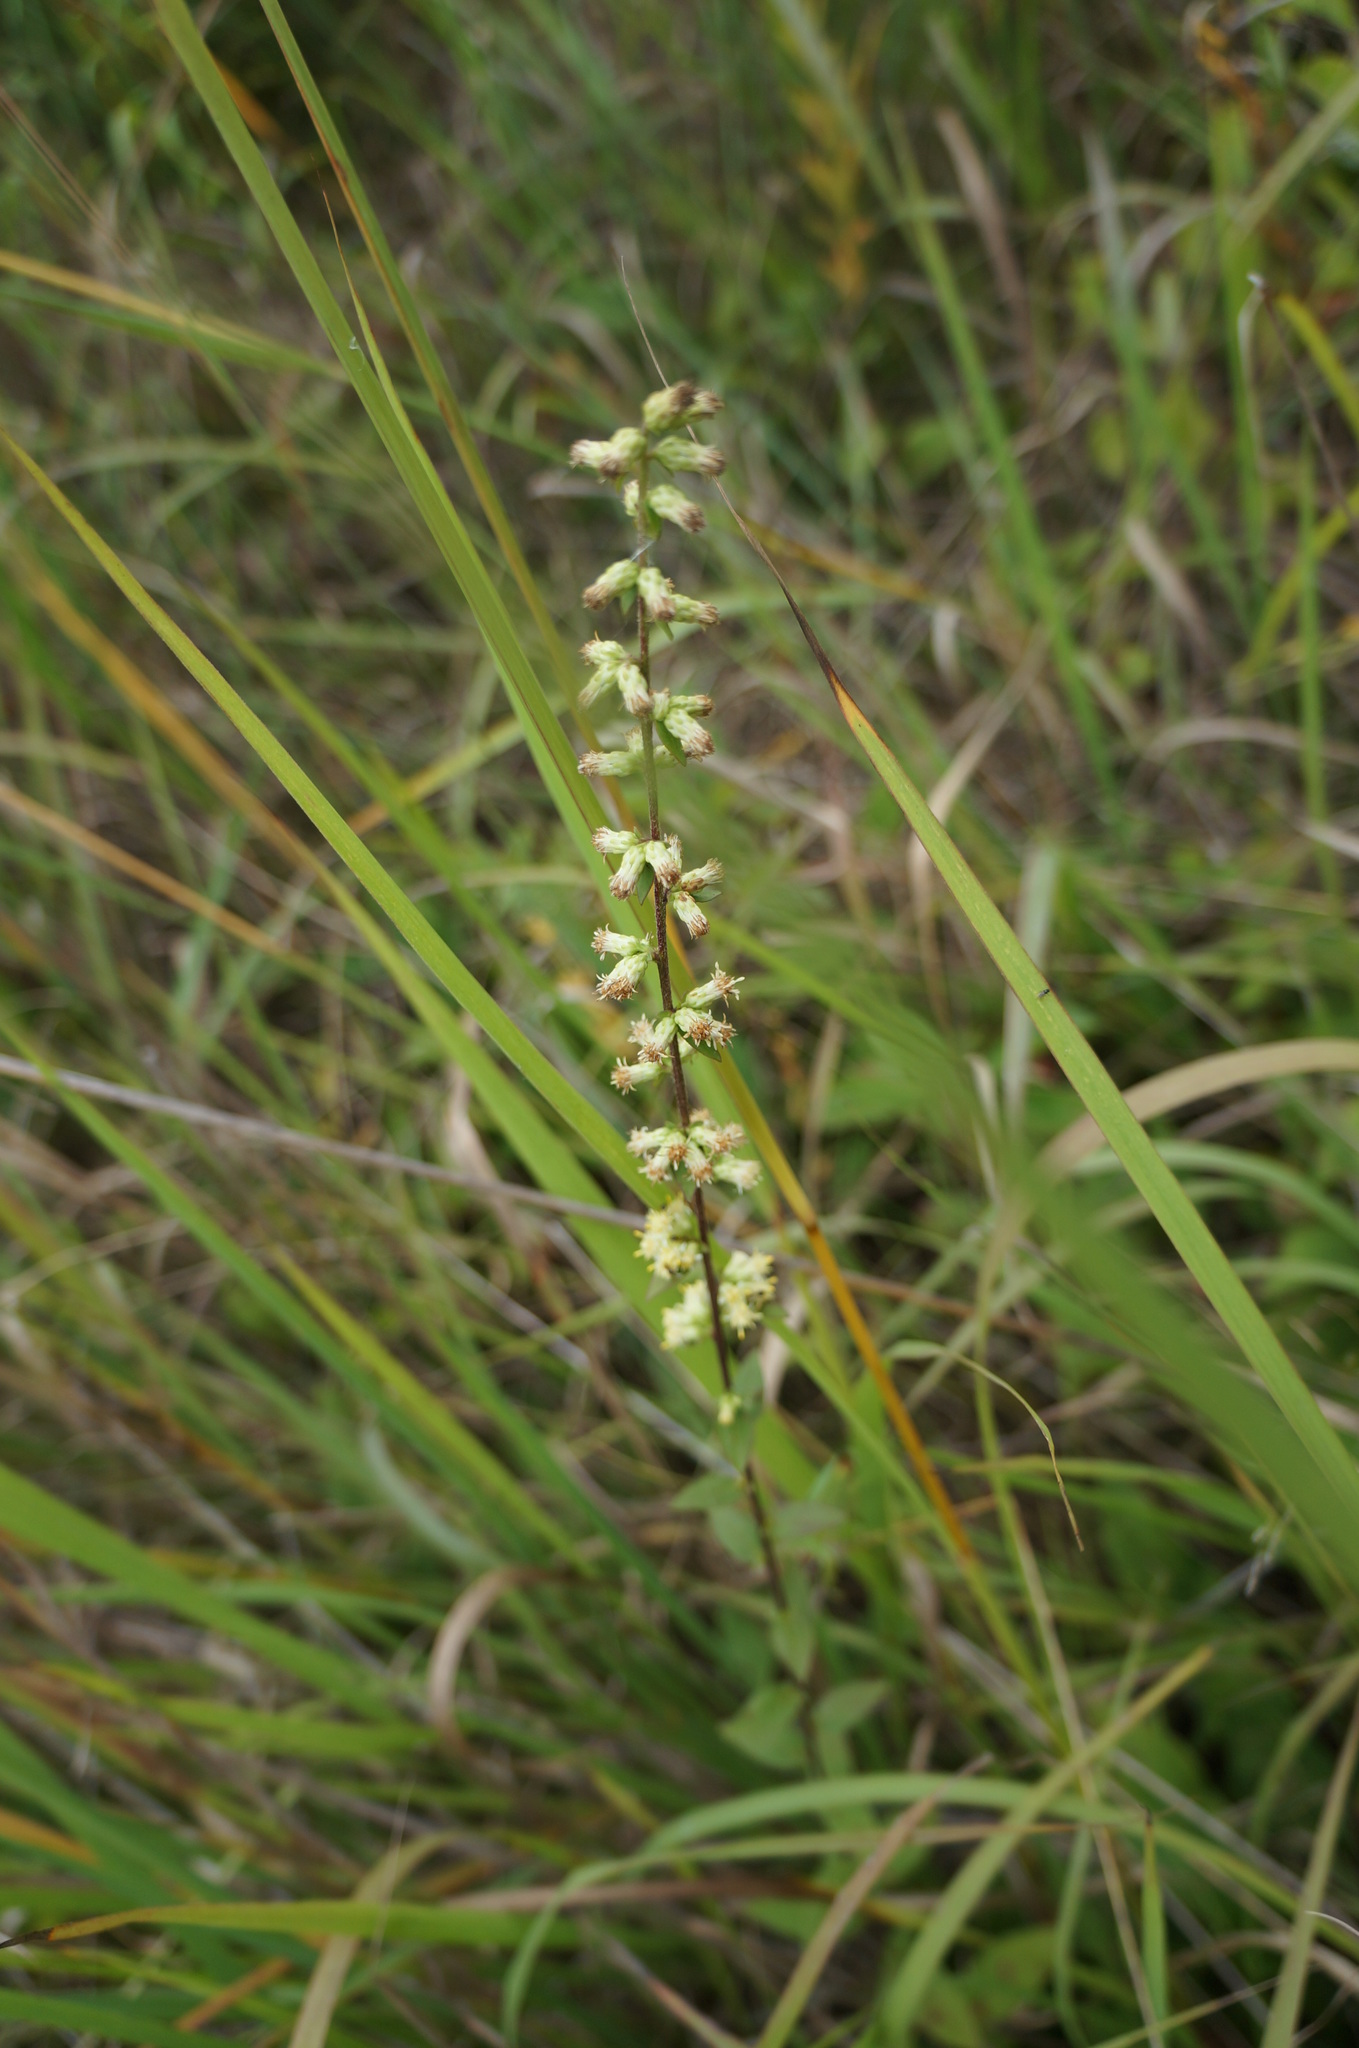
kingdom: Plantae
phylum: Tracheophyta
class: Magnoliopsida
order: Asterales
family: Asteraceae
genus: Solidago
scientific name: Solidago bicolor
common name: Silverrod
